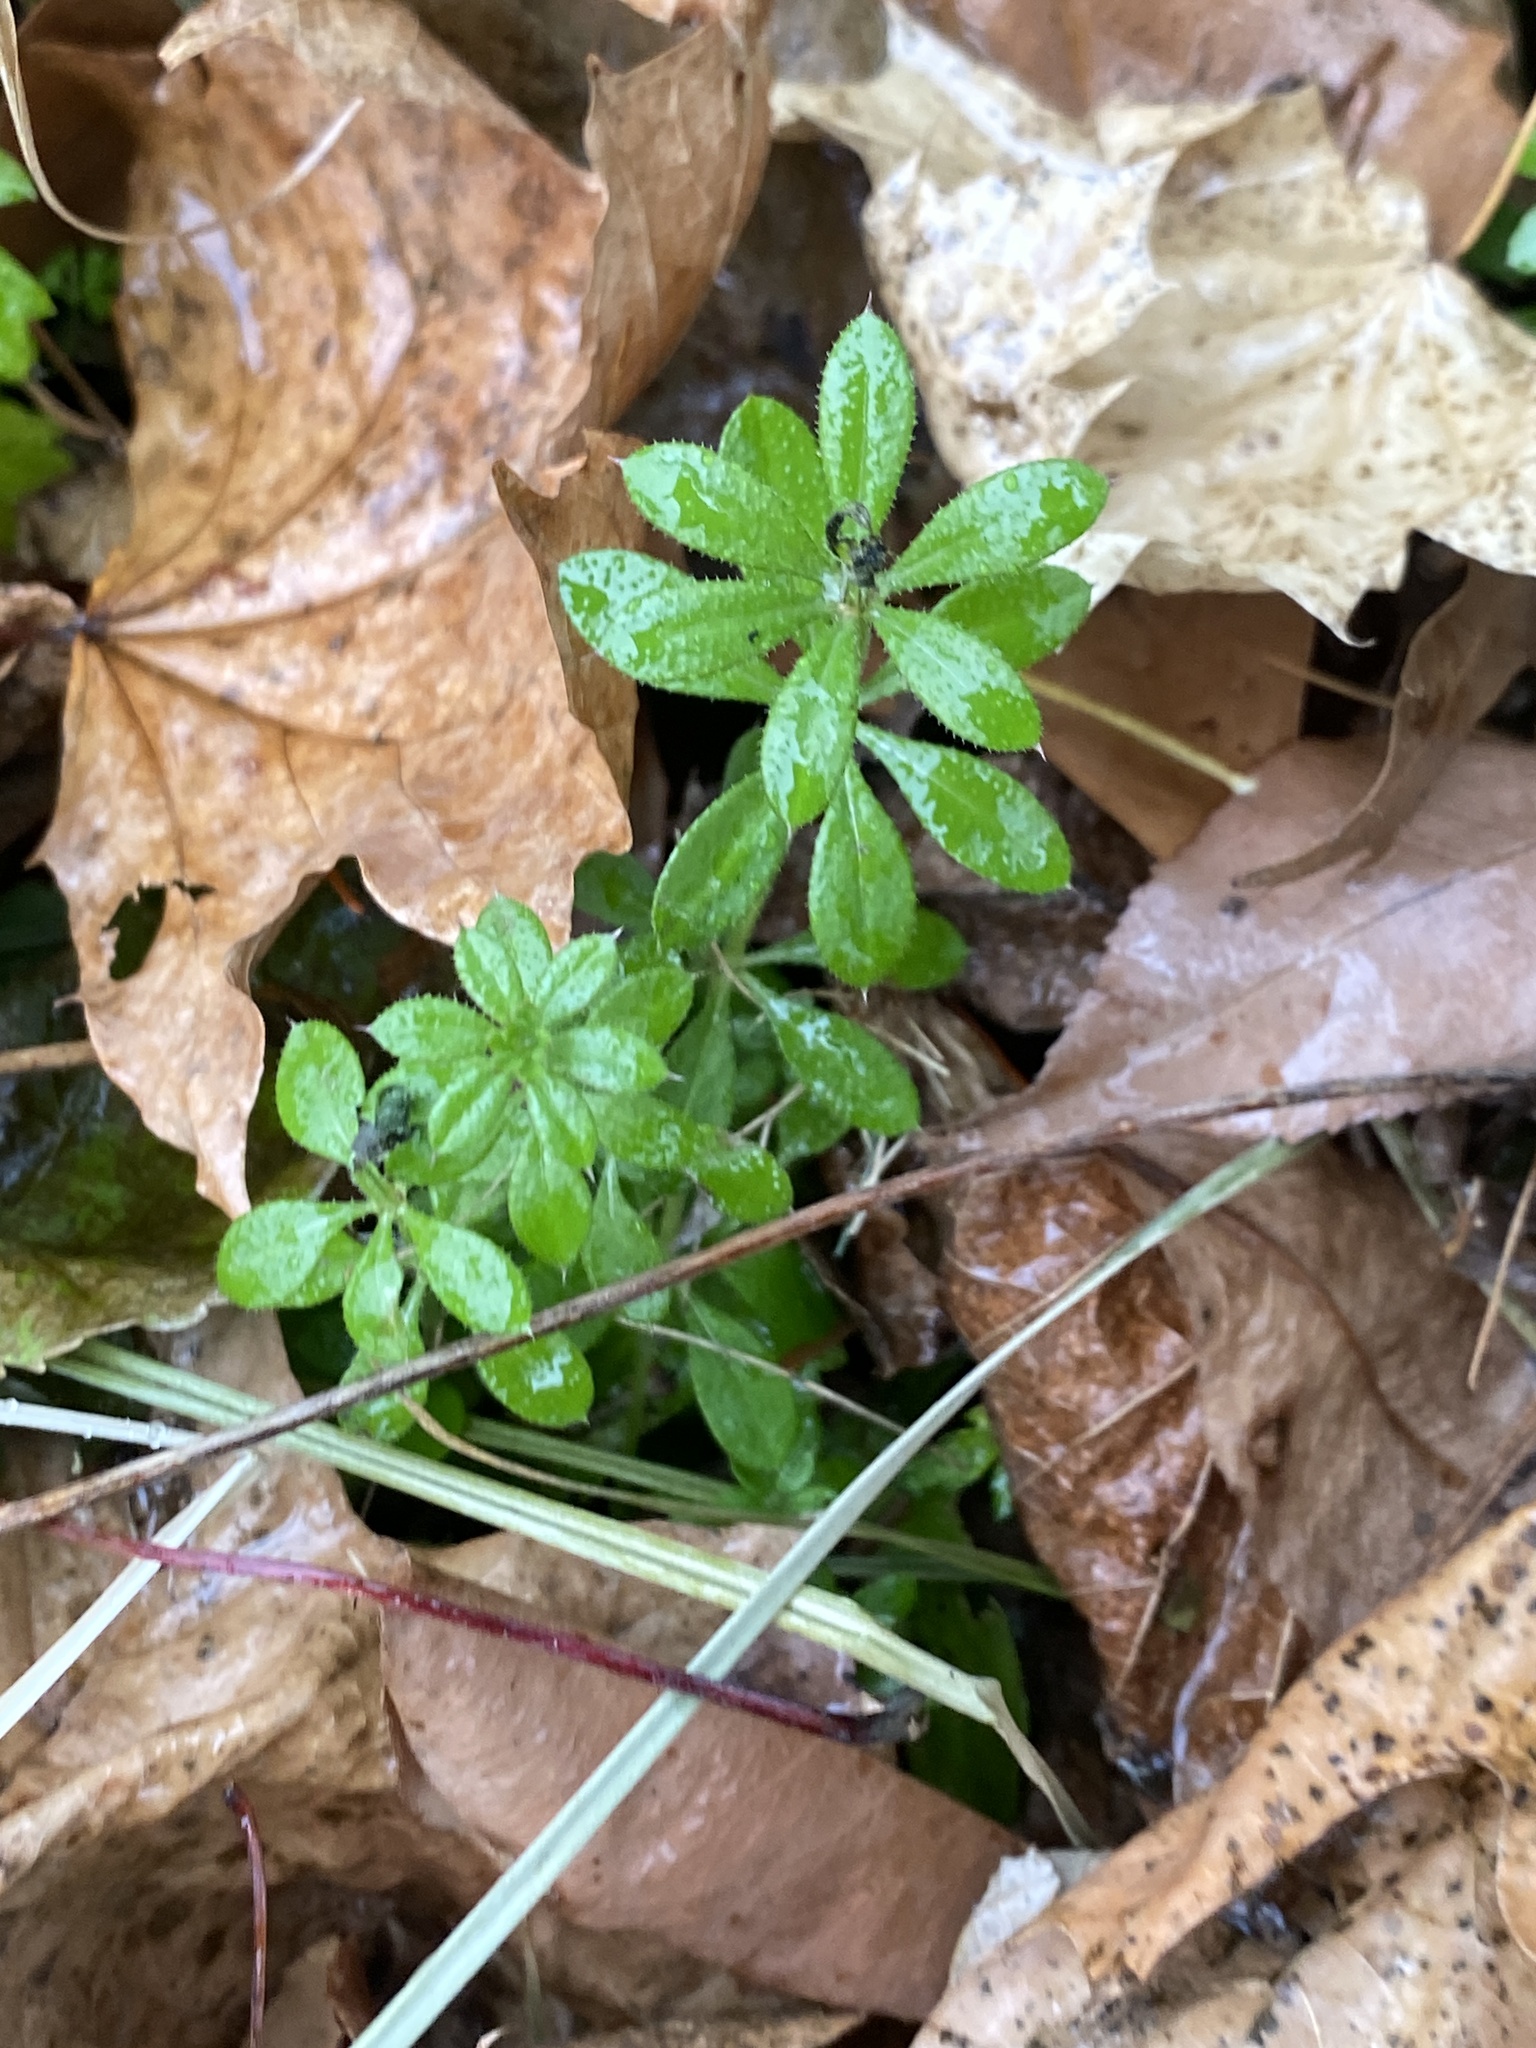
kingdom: Plantae
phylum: Tracheophyta
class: Magnoliopsida
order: Gentianales
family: Rubiaceae
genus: Galium
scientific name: Galium aparine
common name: Cleavers
